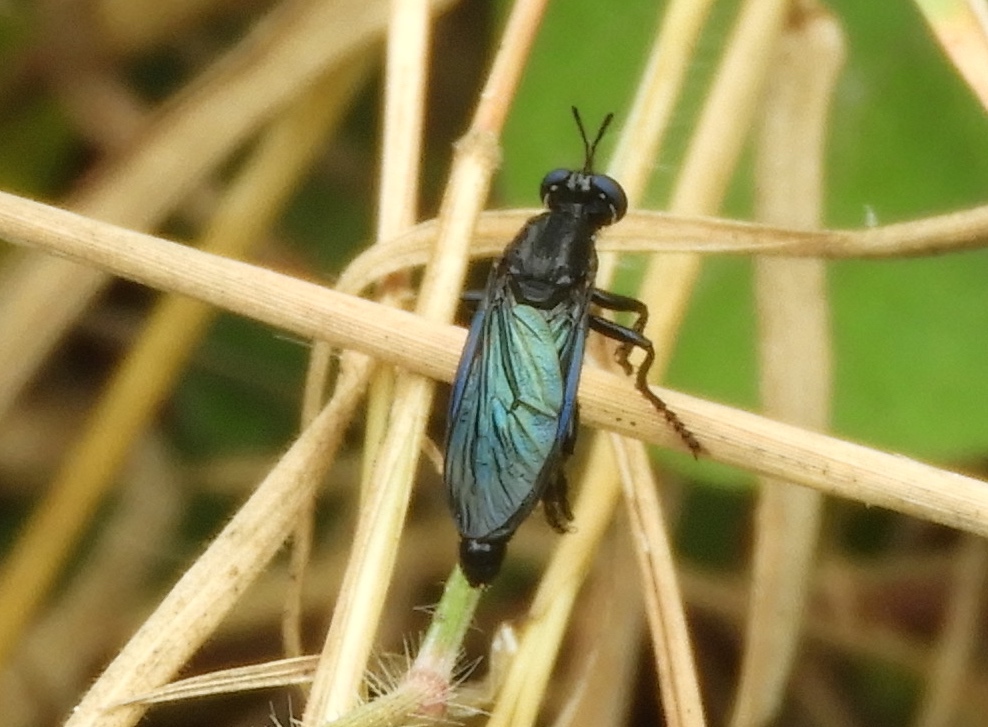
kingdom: Animalia
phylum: Arthropoda
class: Insecta
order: Diptera
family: Asilidae
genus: Saropogon
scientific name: Saropogon
